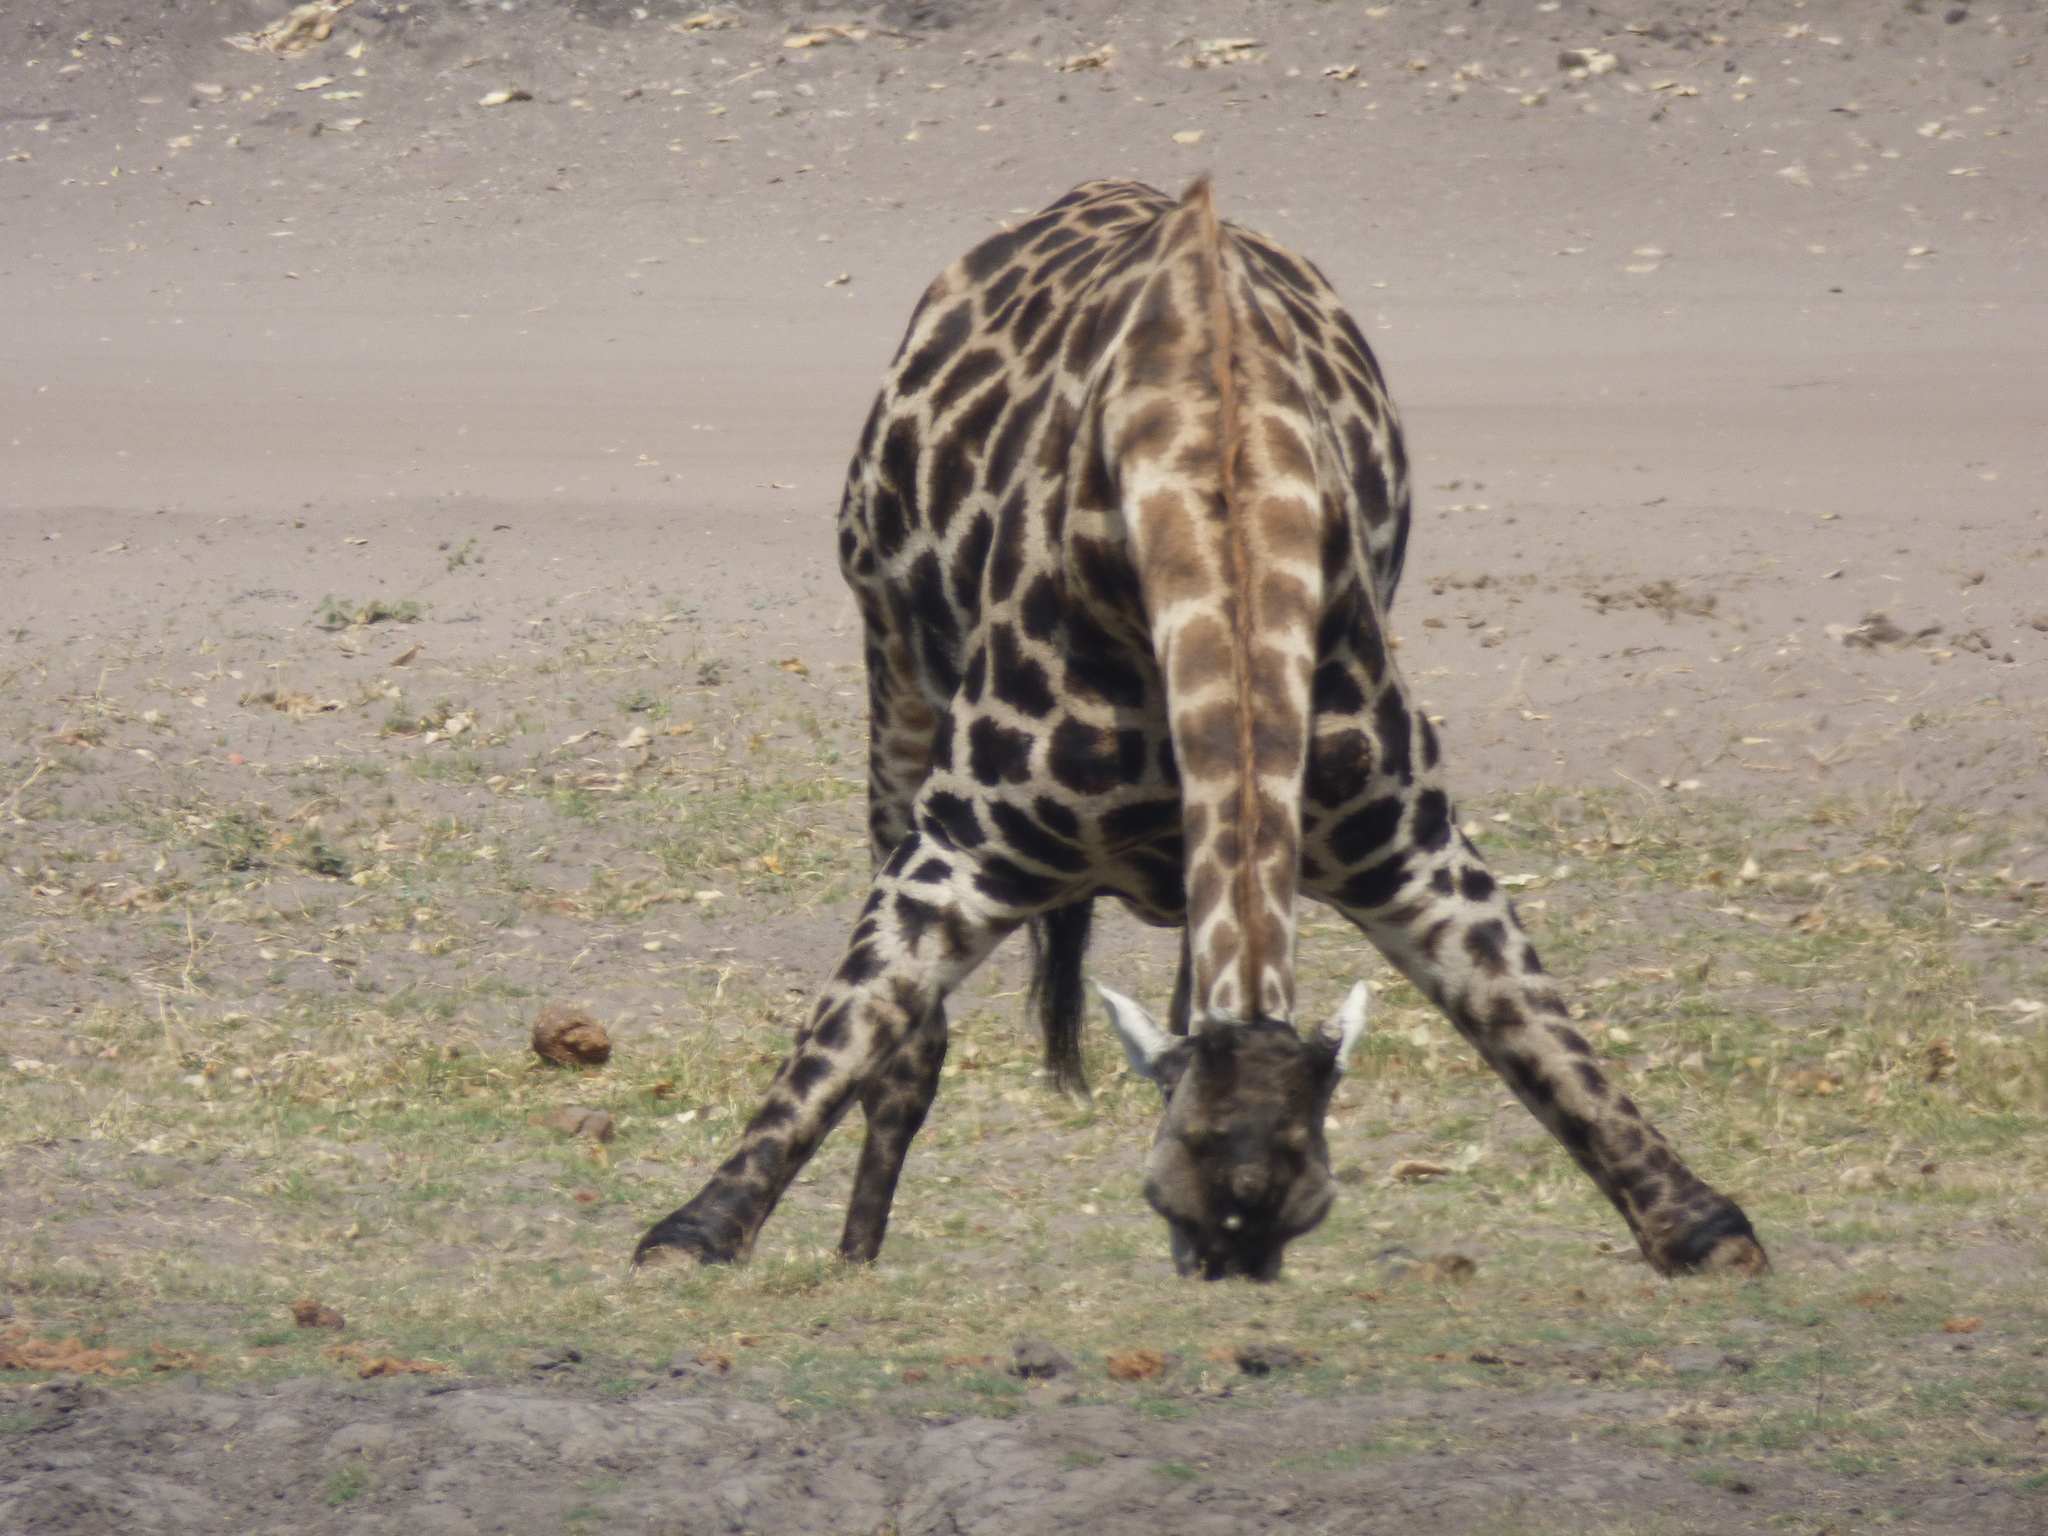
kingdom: Animalia
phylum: Chordata
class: Mammalia
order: Artiodactyla
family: Giraffidae
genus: Giraffa
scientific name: Giraffa giraffa
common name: Southern giraffe
